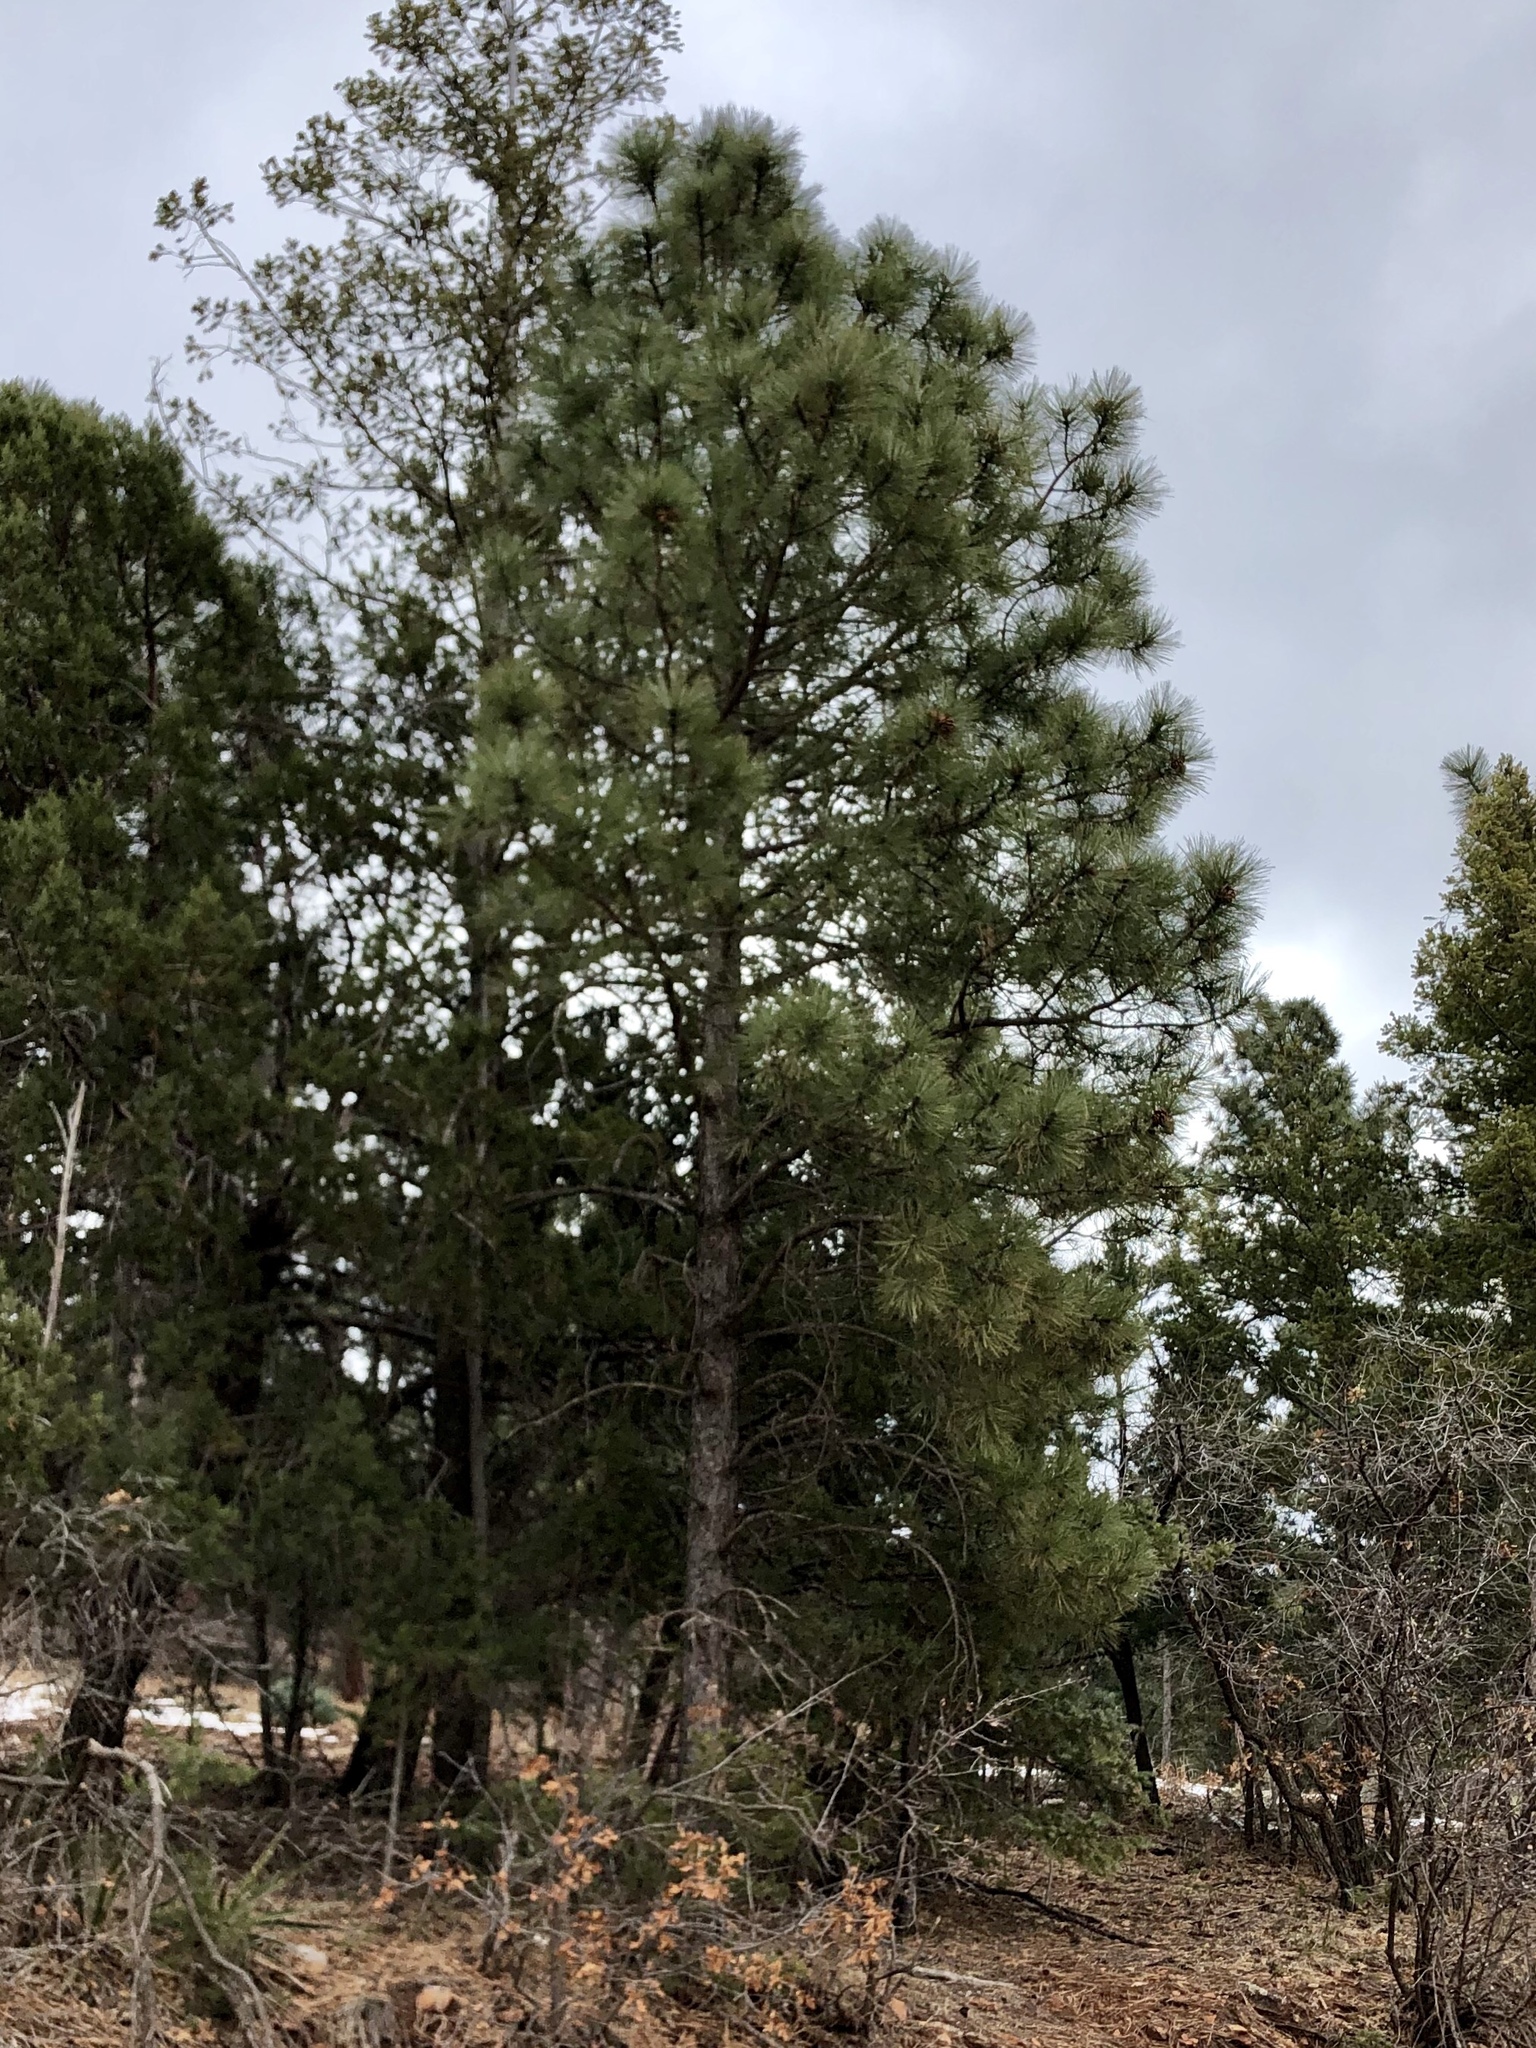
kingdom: Plantae
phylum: Tracheophyta
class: Pinopsida
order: Pinales
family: Pinaceae
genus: Pinus
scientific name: Pinus ponderosa
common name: Western yellow-pine
